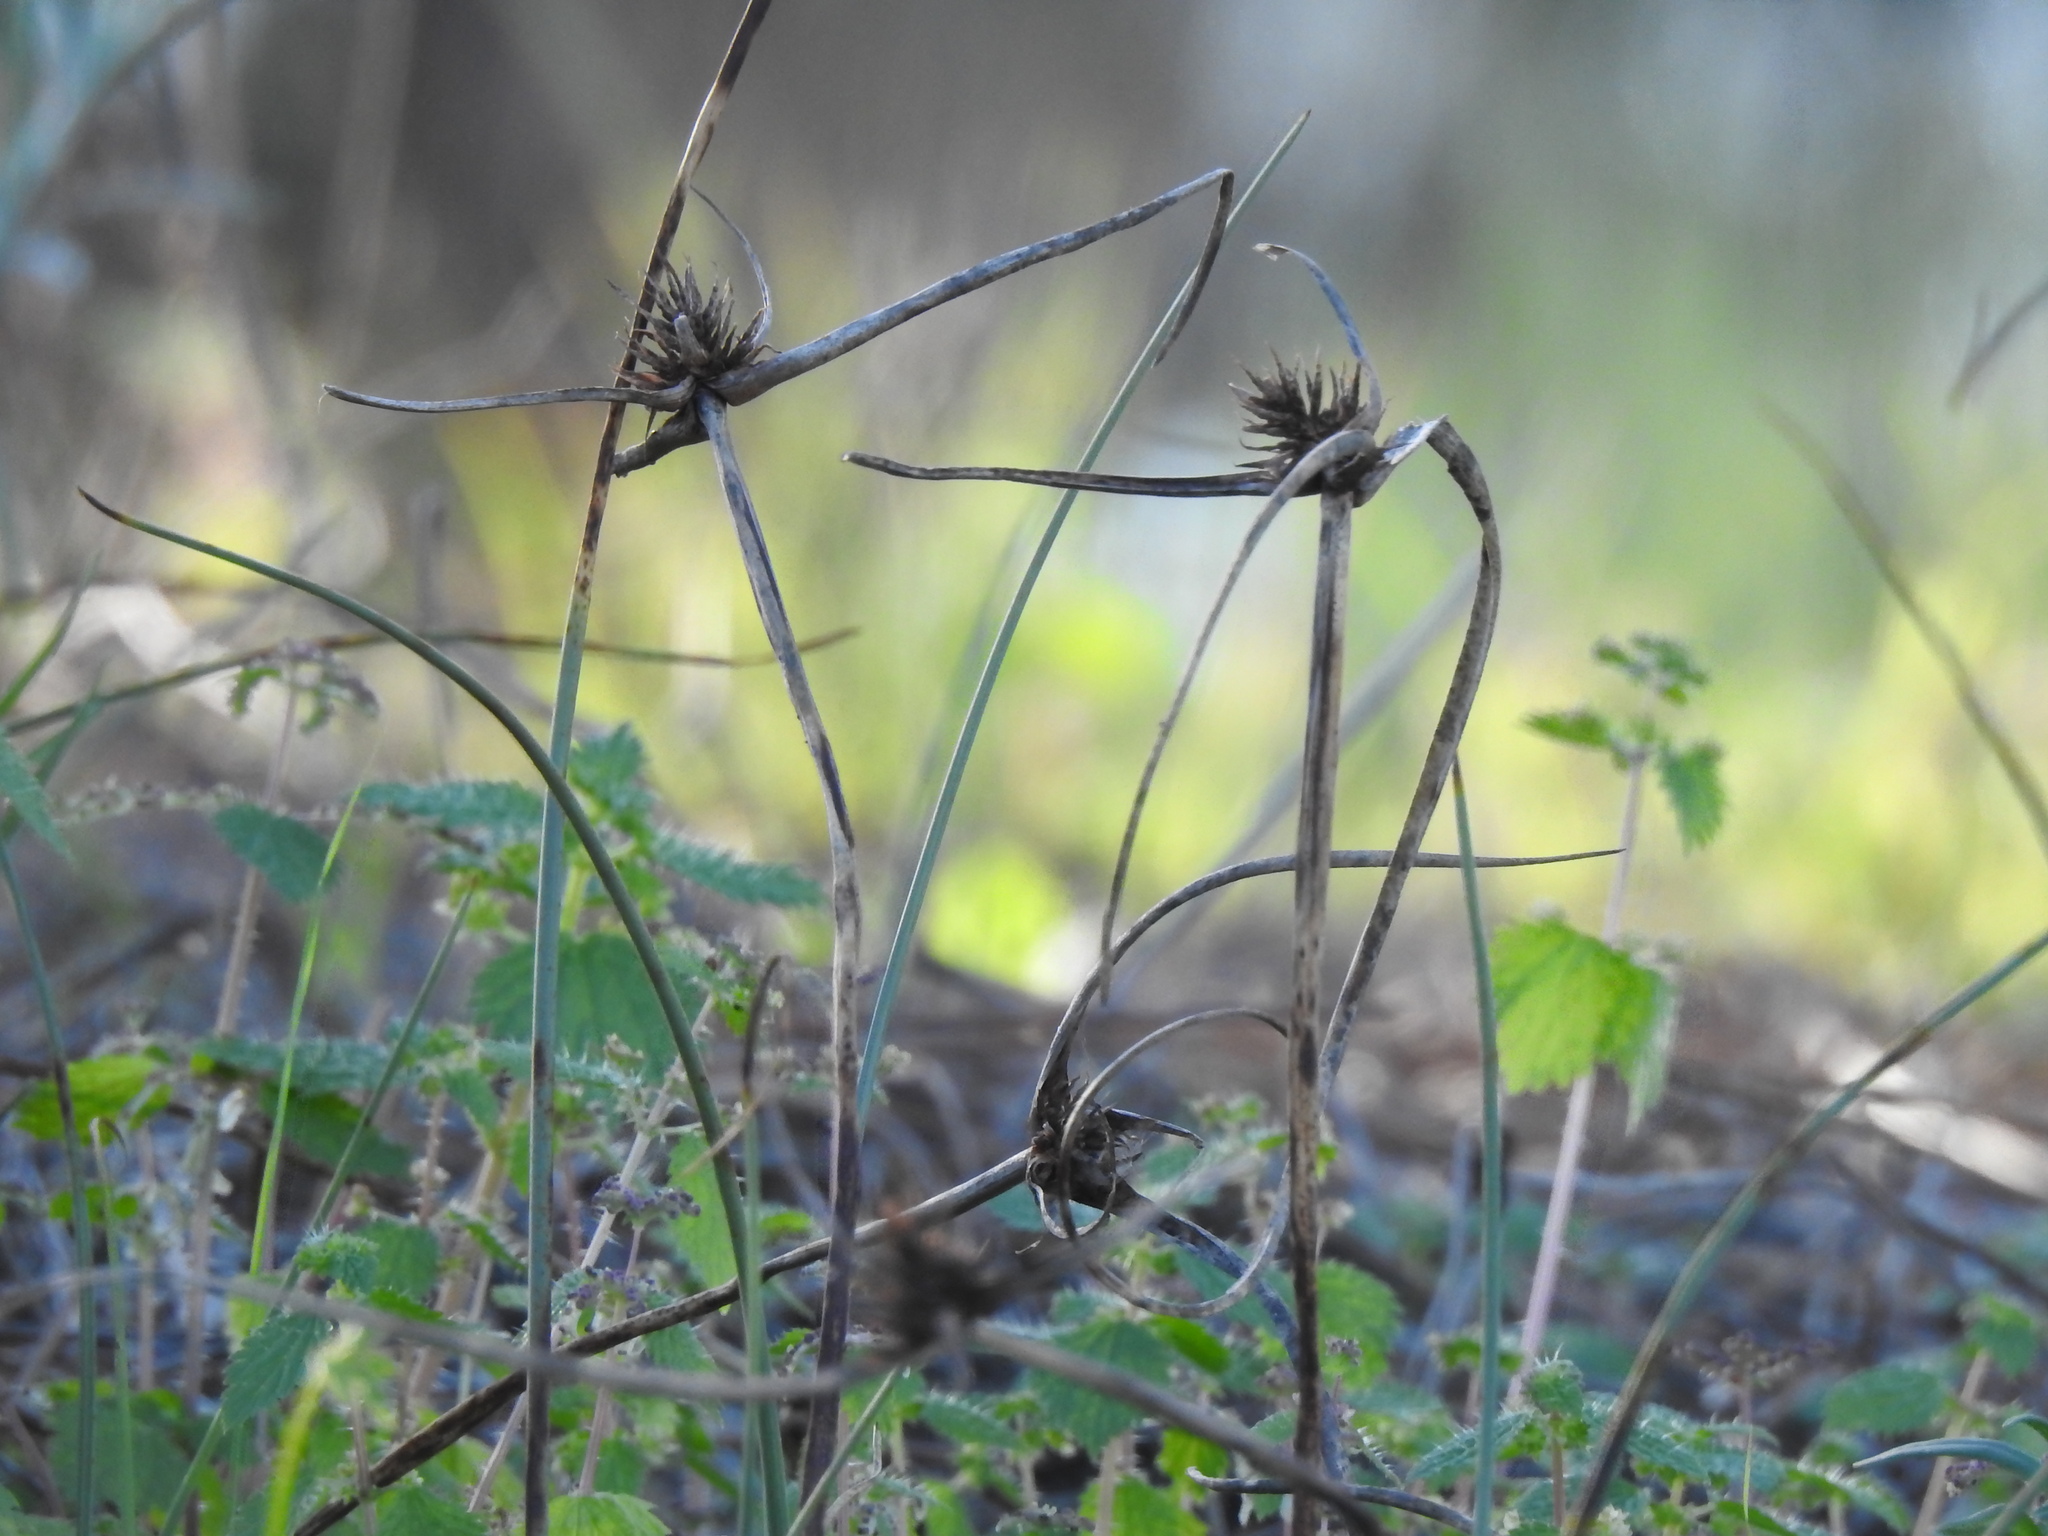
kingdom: Plantae
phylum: Tracheophyta
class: Liliopsida
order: Poales
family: Cyperaceae
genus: Cyperus
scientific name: Cyperus capitatus
